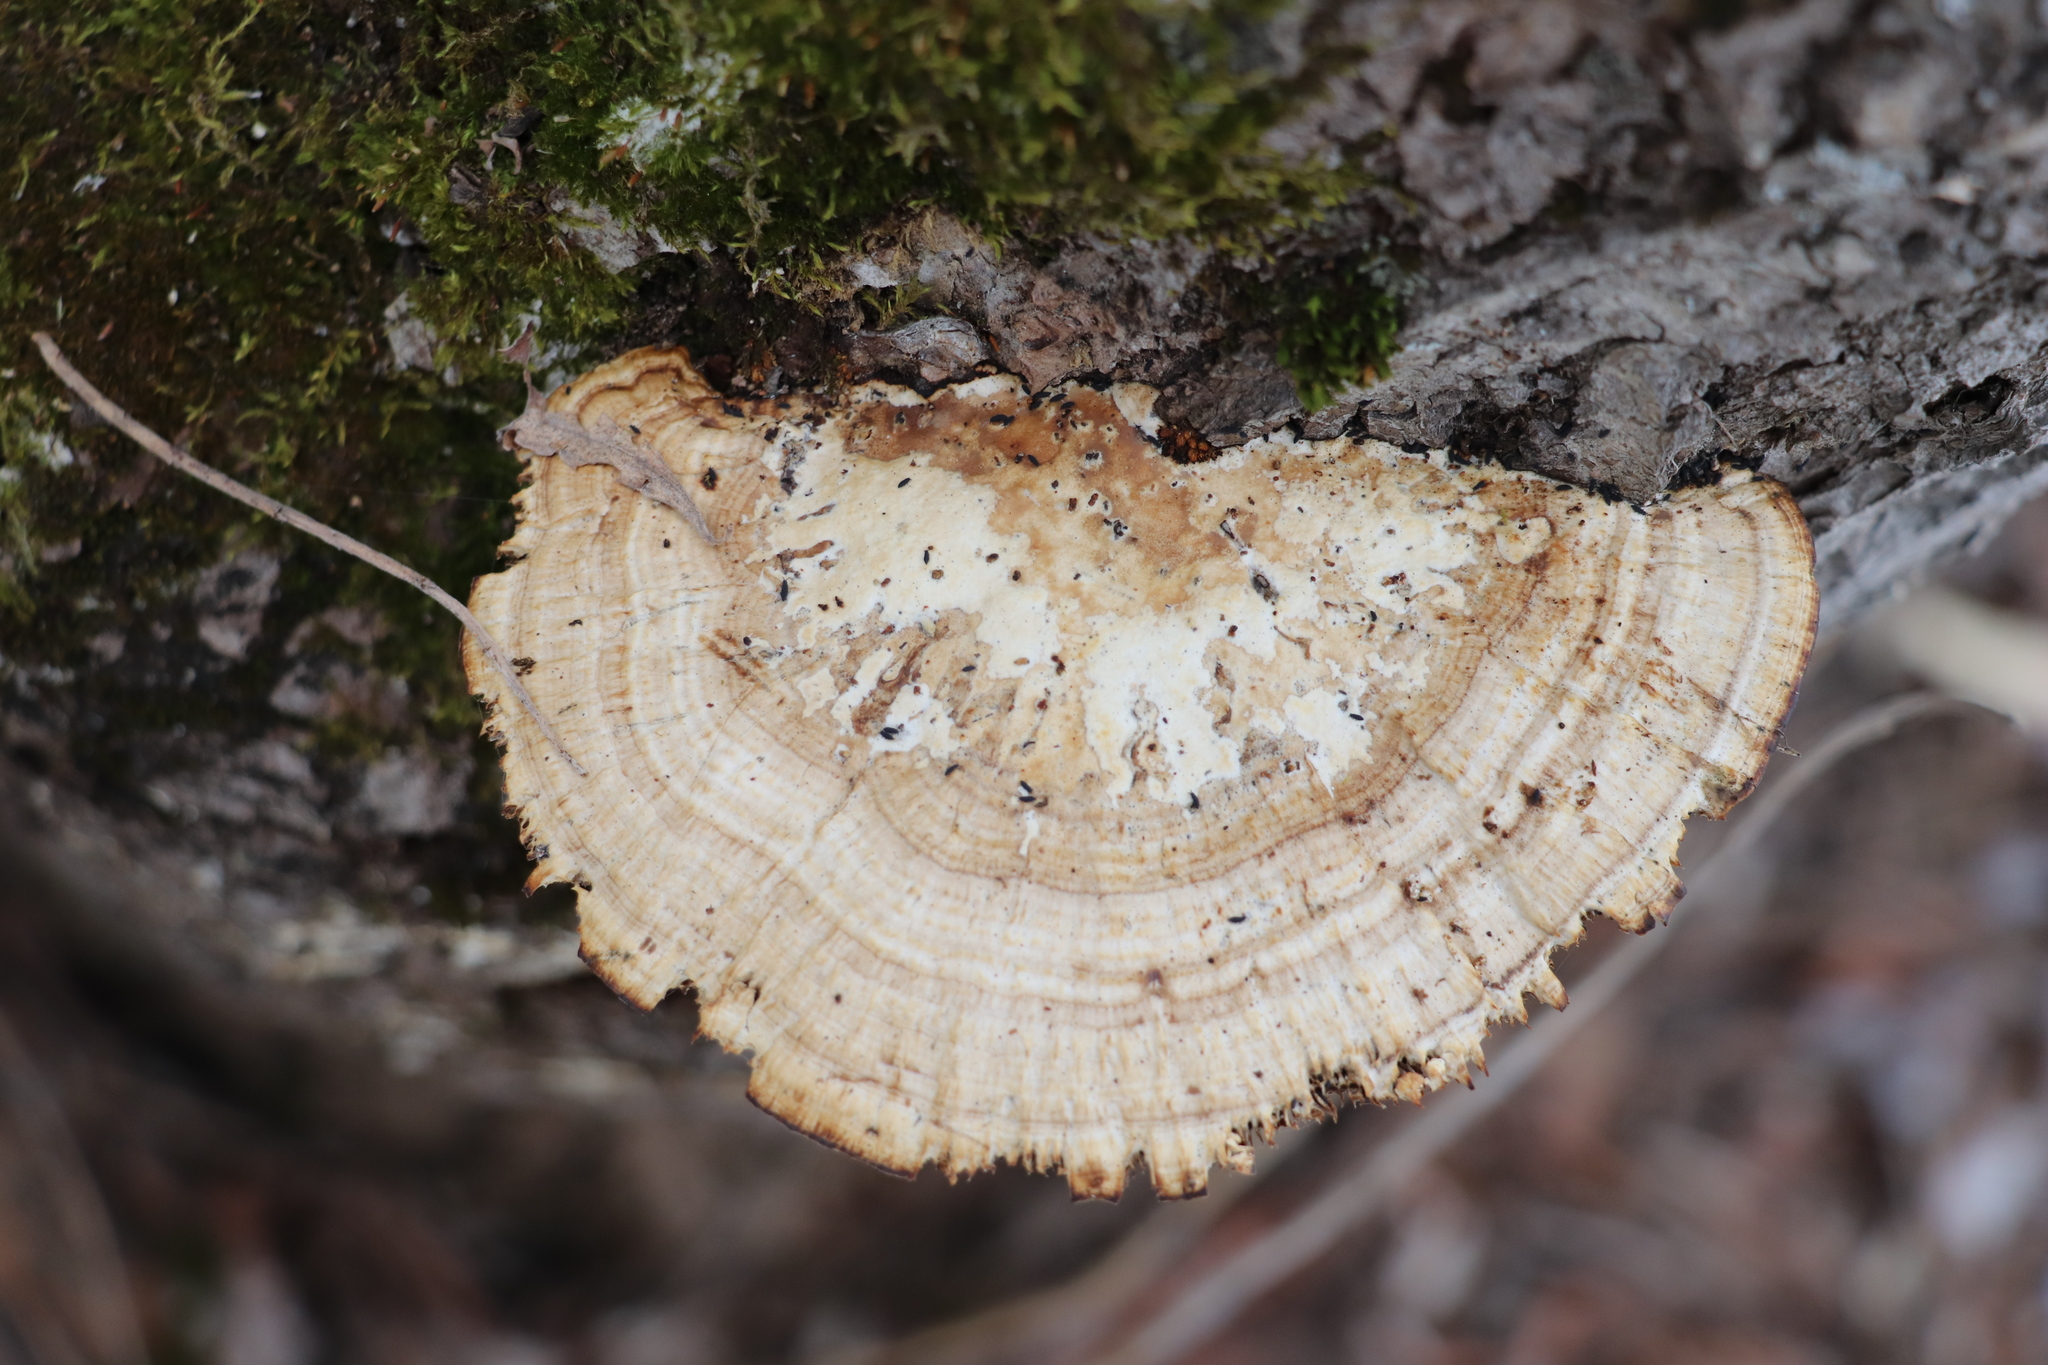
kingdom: Fungi
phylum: Basidiomycota
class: Agaricomycetes
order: Polyporales
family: Polyporaceae
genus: Daedaleopsis
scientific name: Daedaleopsis confragosa
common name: Blushing bracket
